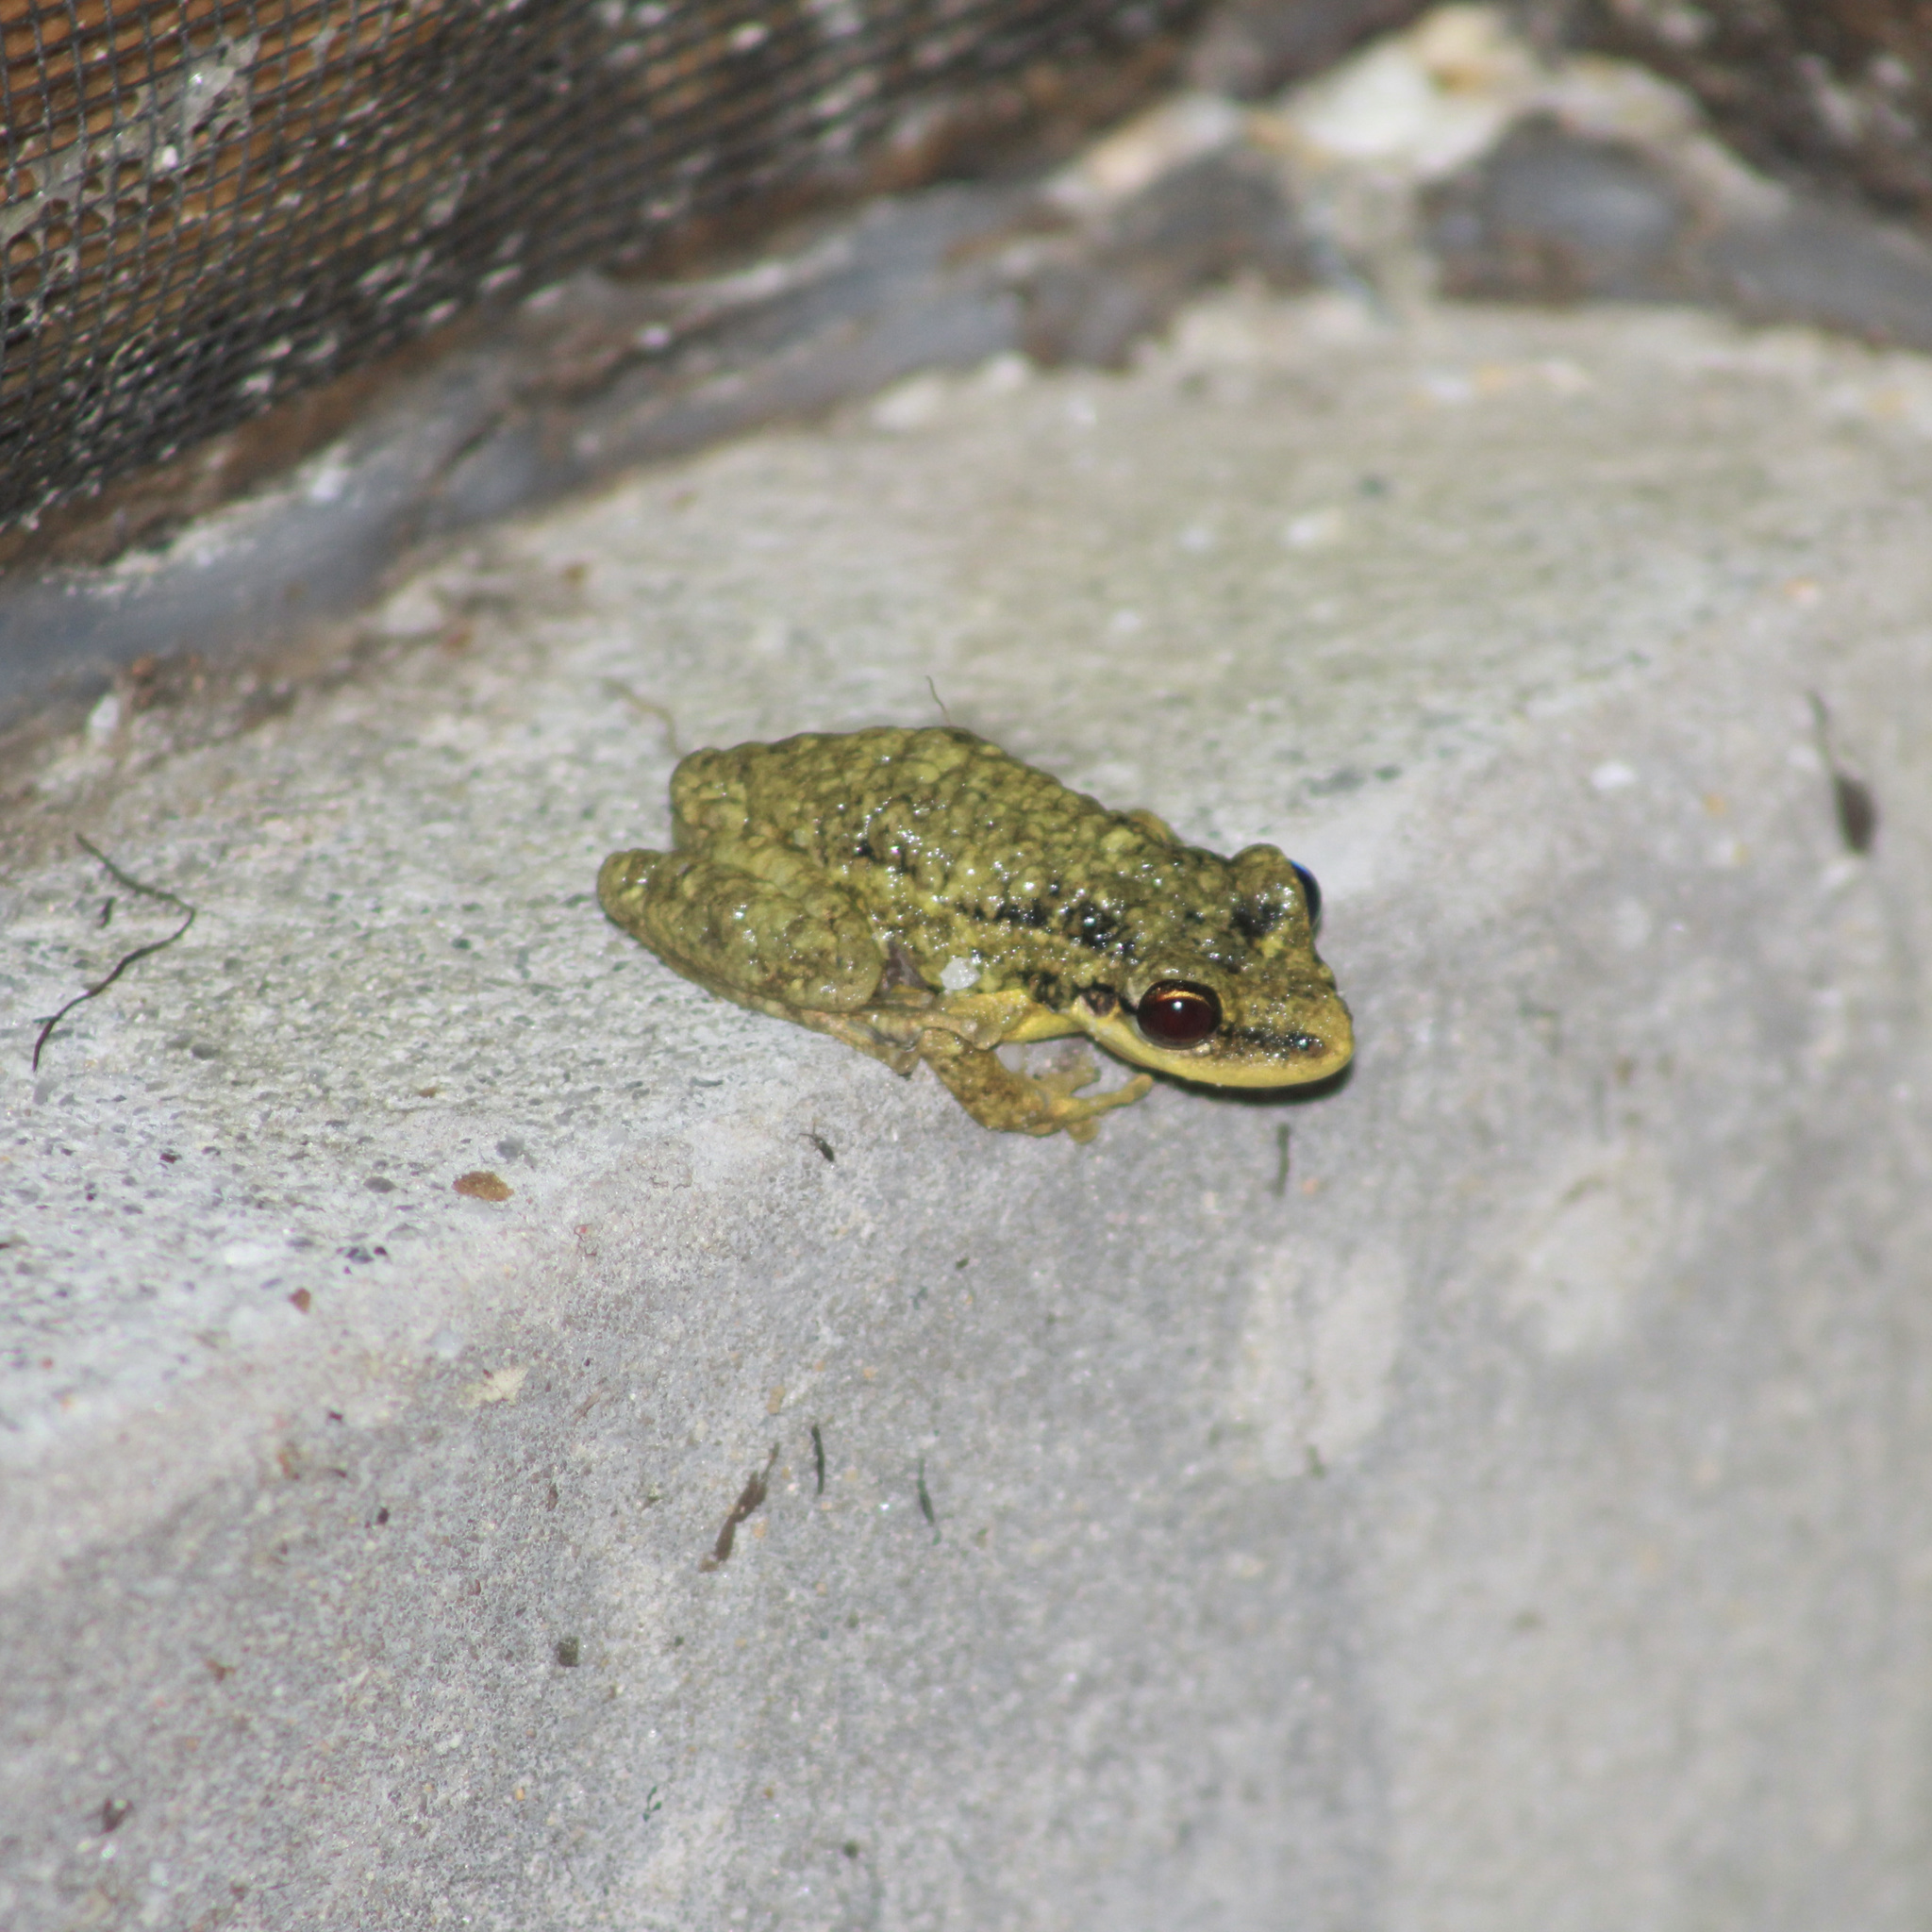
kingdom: Animalia
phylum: Chordata
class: Amphibia
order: Anura
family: Hylidae
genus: Scinax
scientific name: Scinax ruber
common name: Red snouted treefrog
